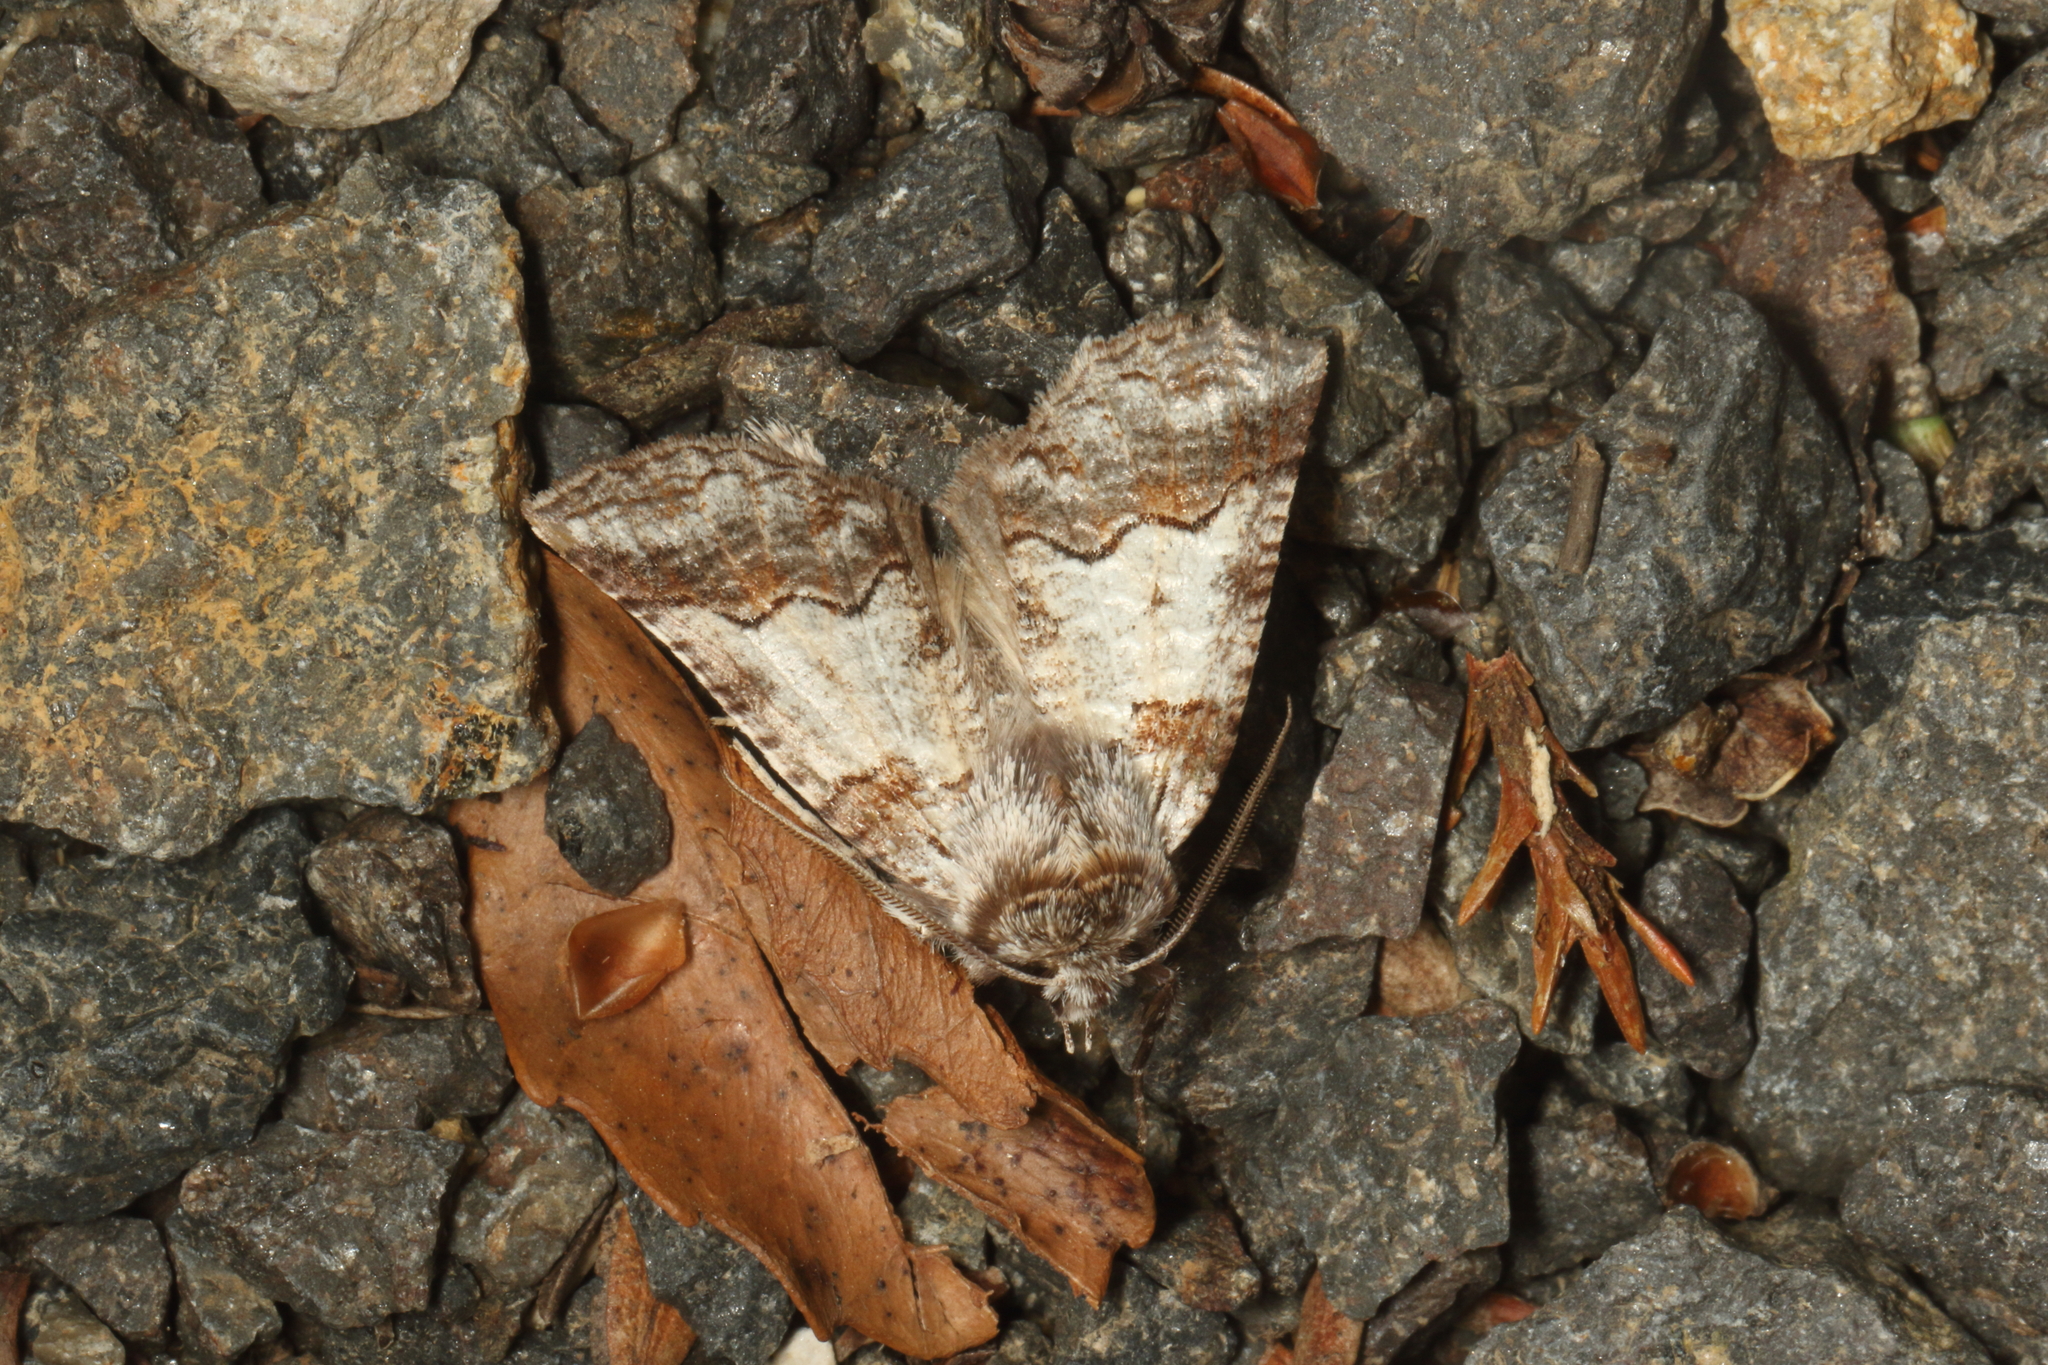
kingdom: Animalia
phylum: Arthropoda
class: Insecta
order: Lepidoptera
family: Geometridae
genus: Declana
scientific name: Declana
